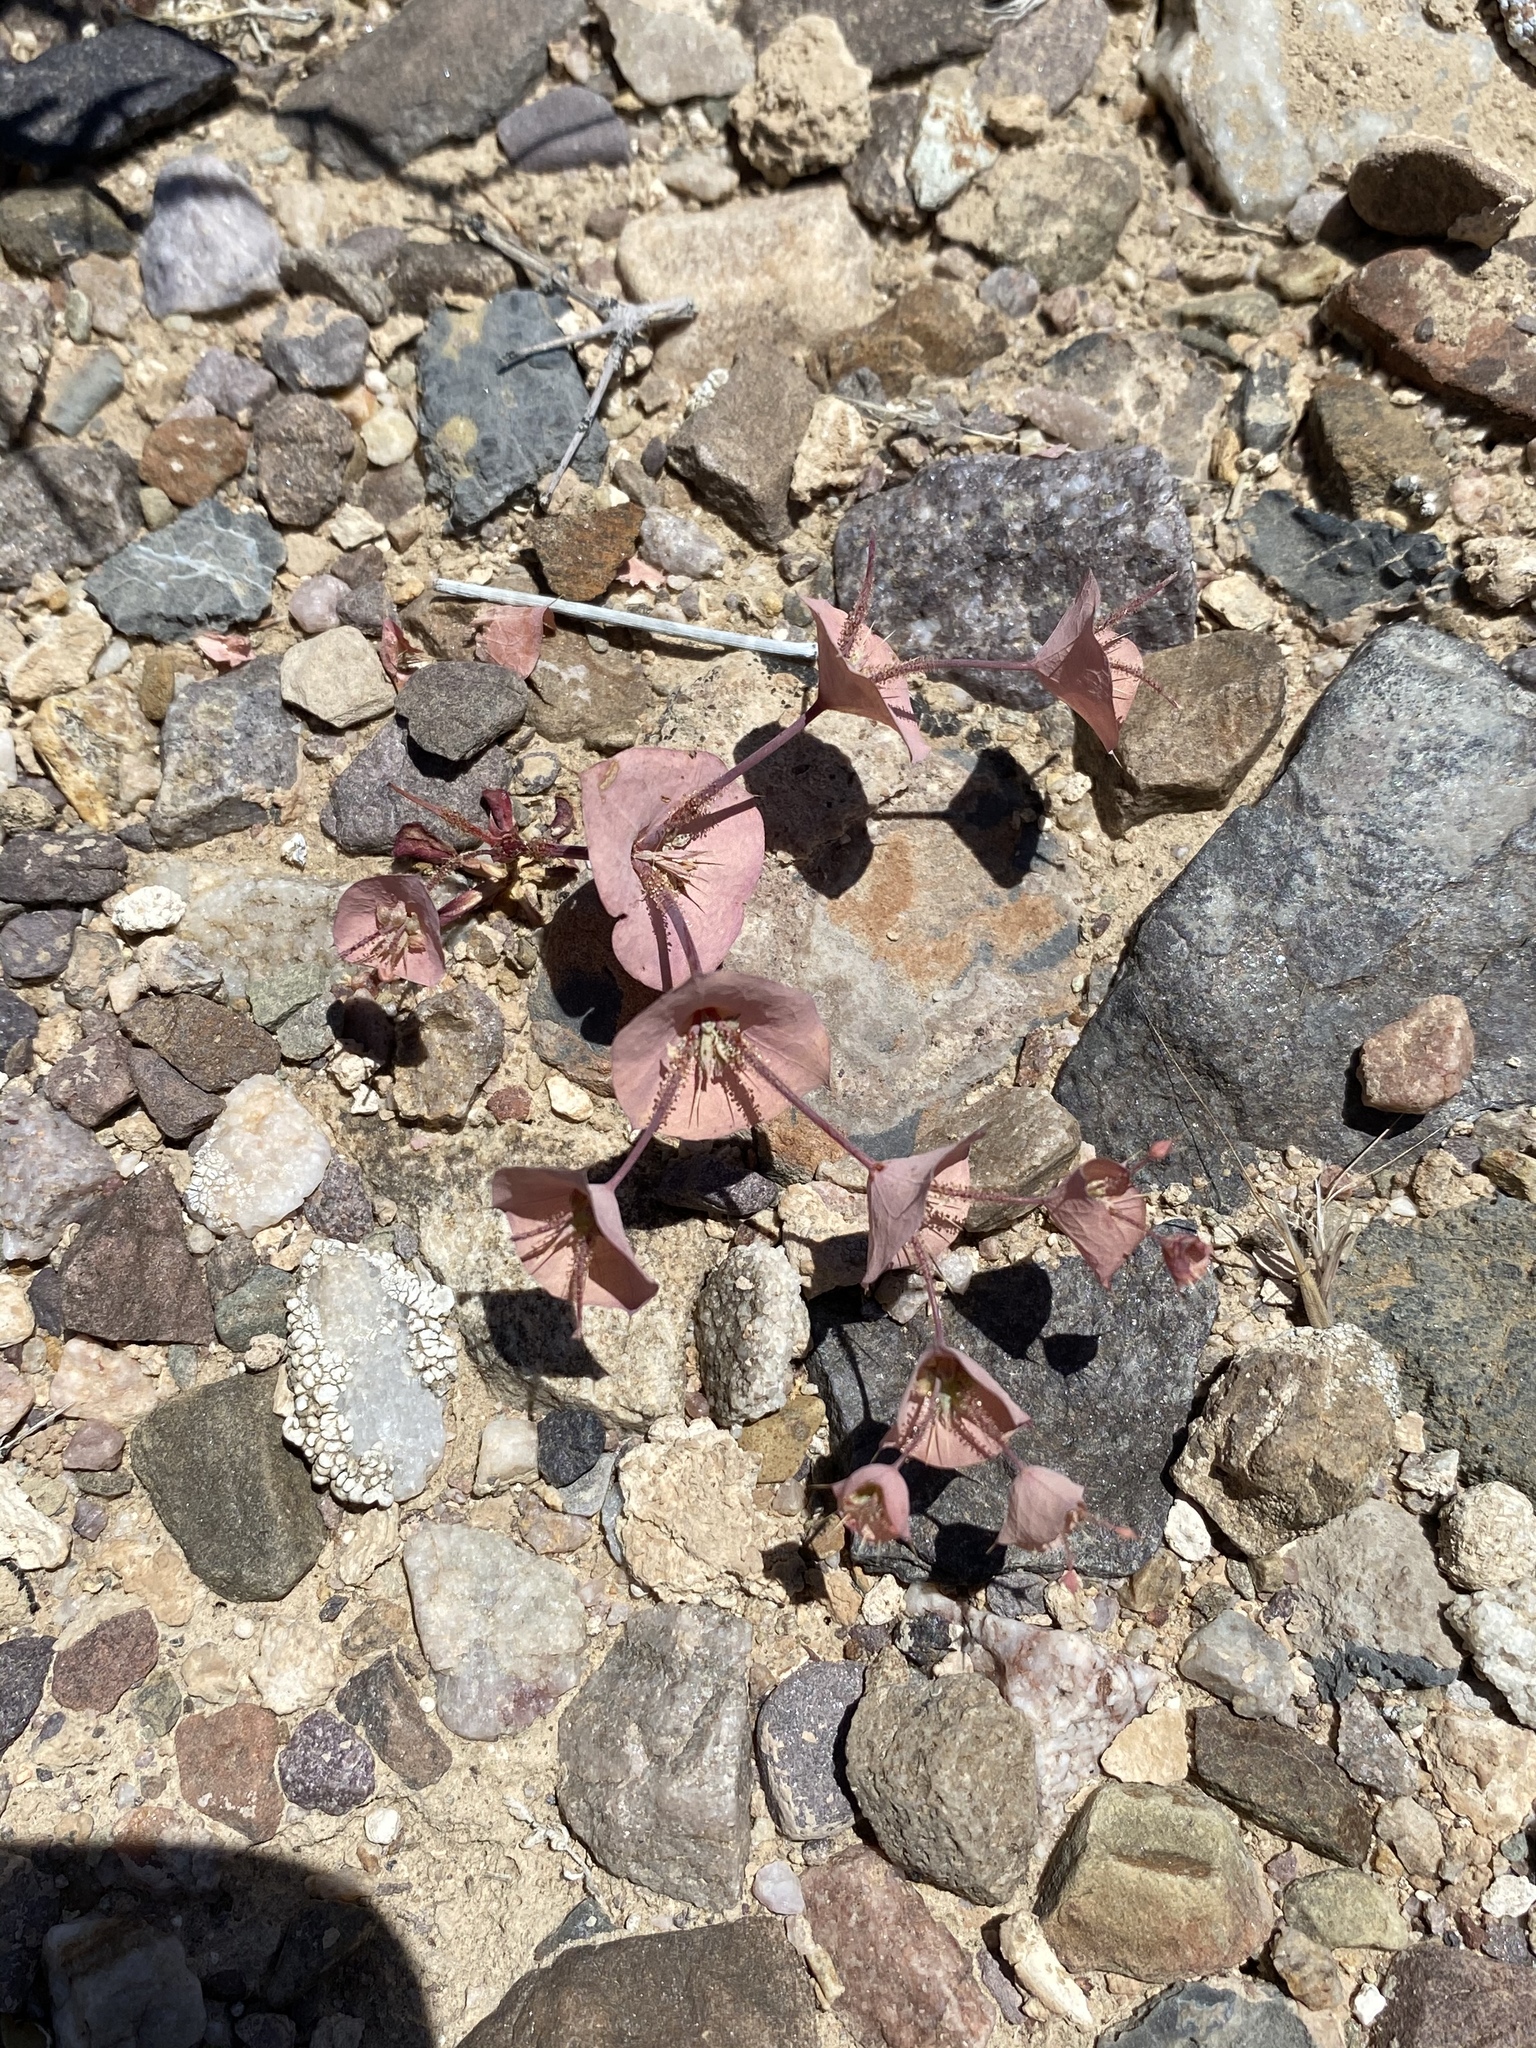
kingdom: Plantae
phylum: Tracheophyta
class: Magnoliopsida
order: Caryophyllales
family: Polygonaceae
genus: Oxytheca
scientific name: Oxytheca perfoliata
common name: Round-leaf puncturebract
